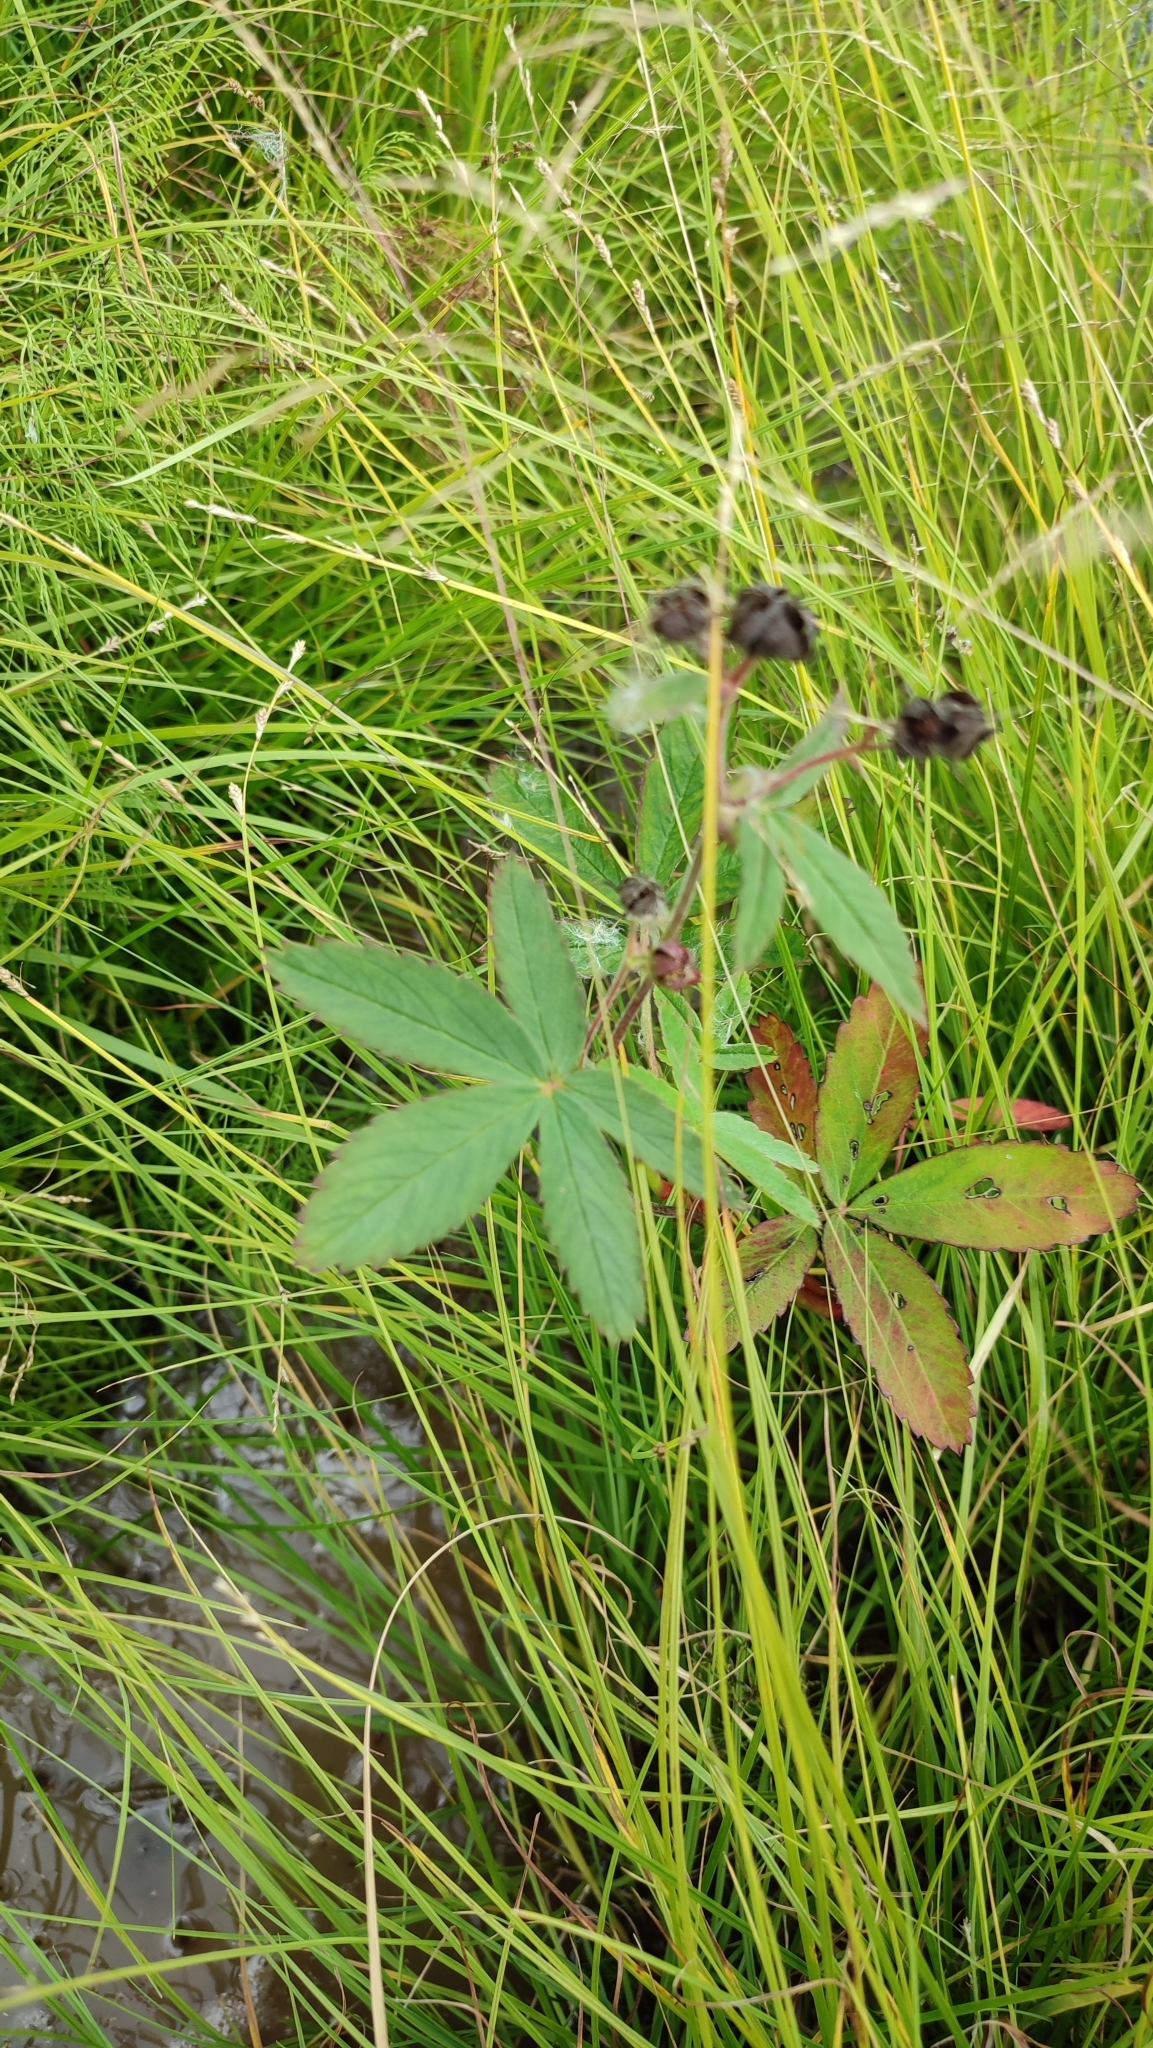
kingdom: Plantae
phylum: Tracheophyta
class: Magnoliopsida
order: Rosales
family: Rosaceae
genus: Comarum
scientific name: Comarum palustre
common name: Marsh cinquefoil
